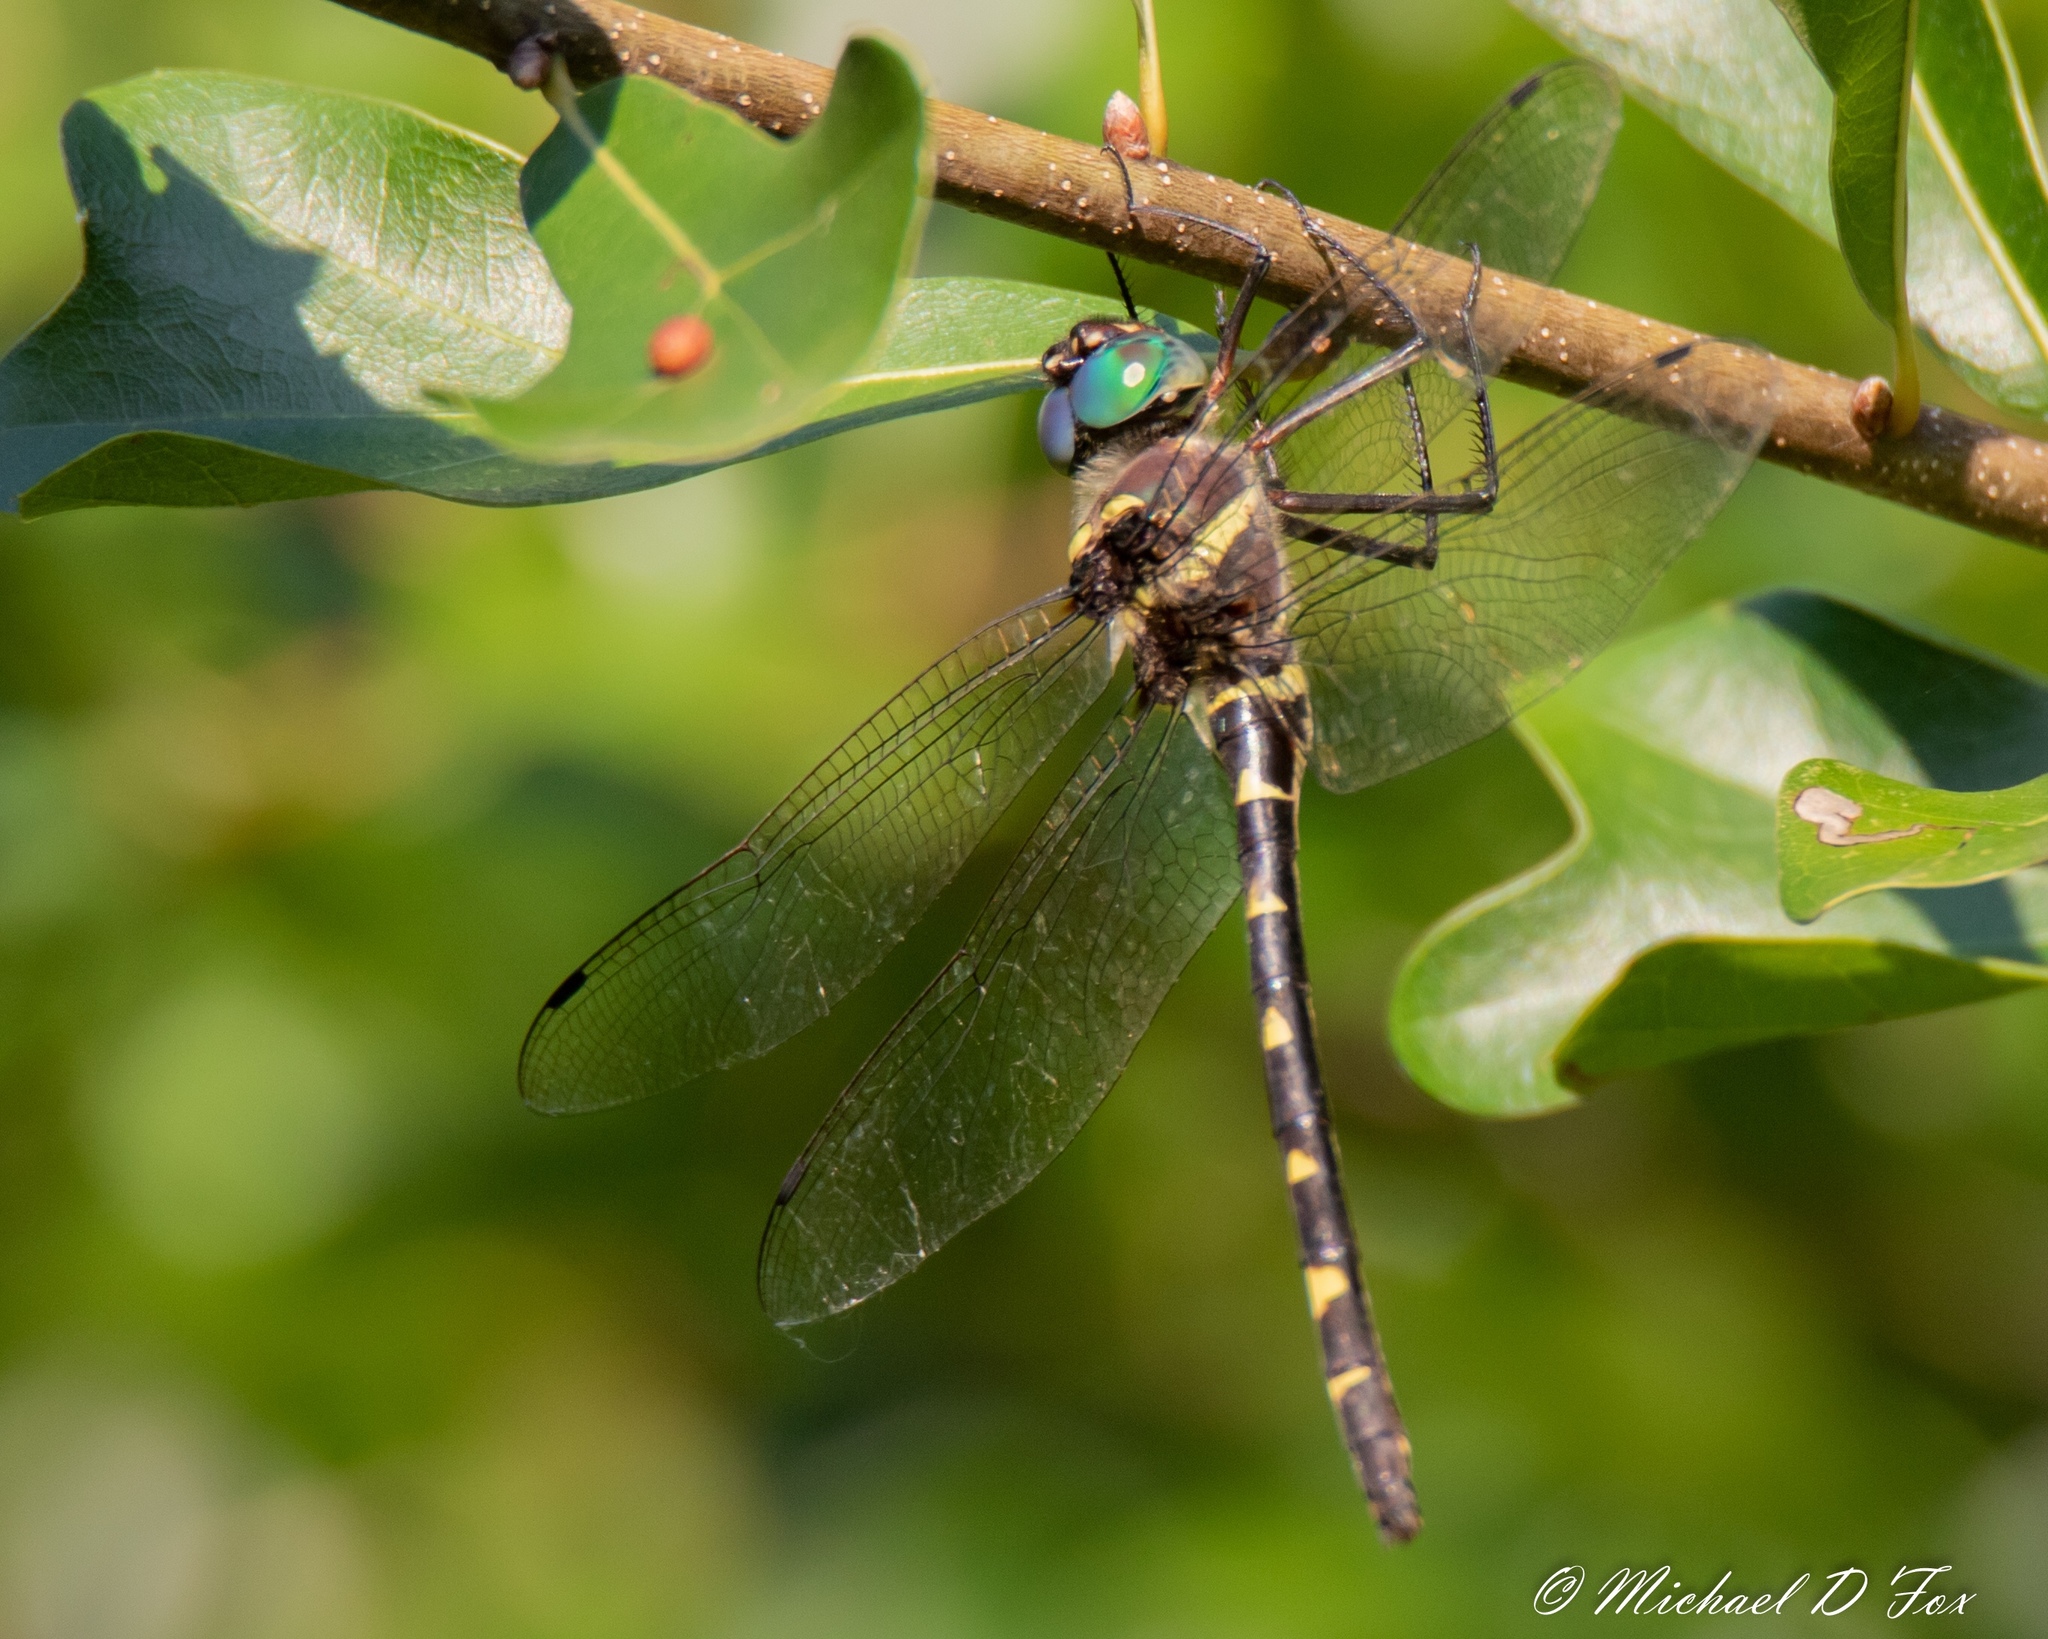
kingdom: Animalia
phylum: Arthropoda
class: Insecta
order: Odonata
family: Macromiidae
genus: Macromia
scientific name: Macromia illinoiensis
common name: Swift river cruiser
